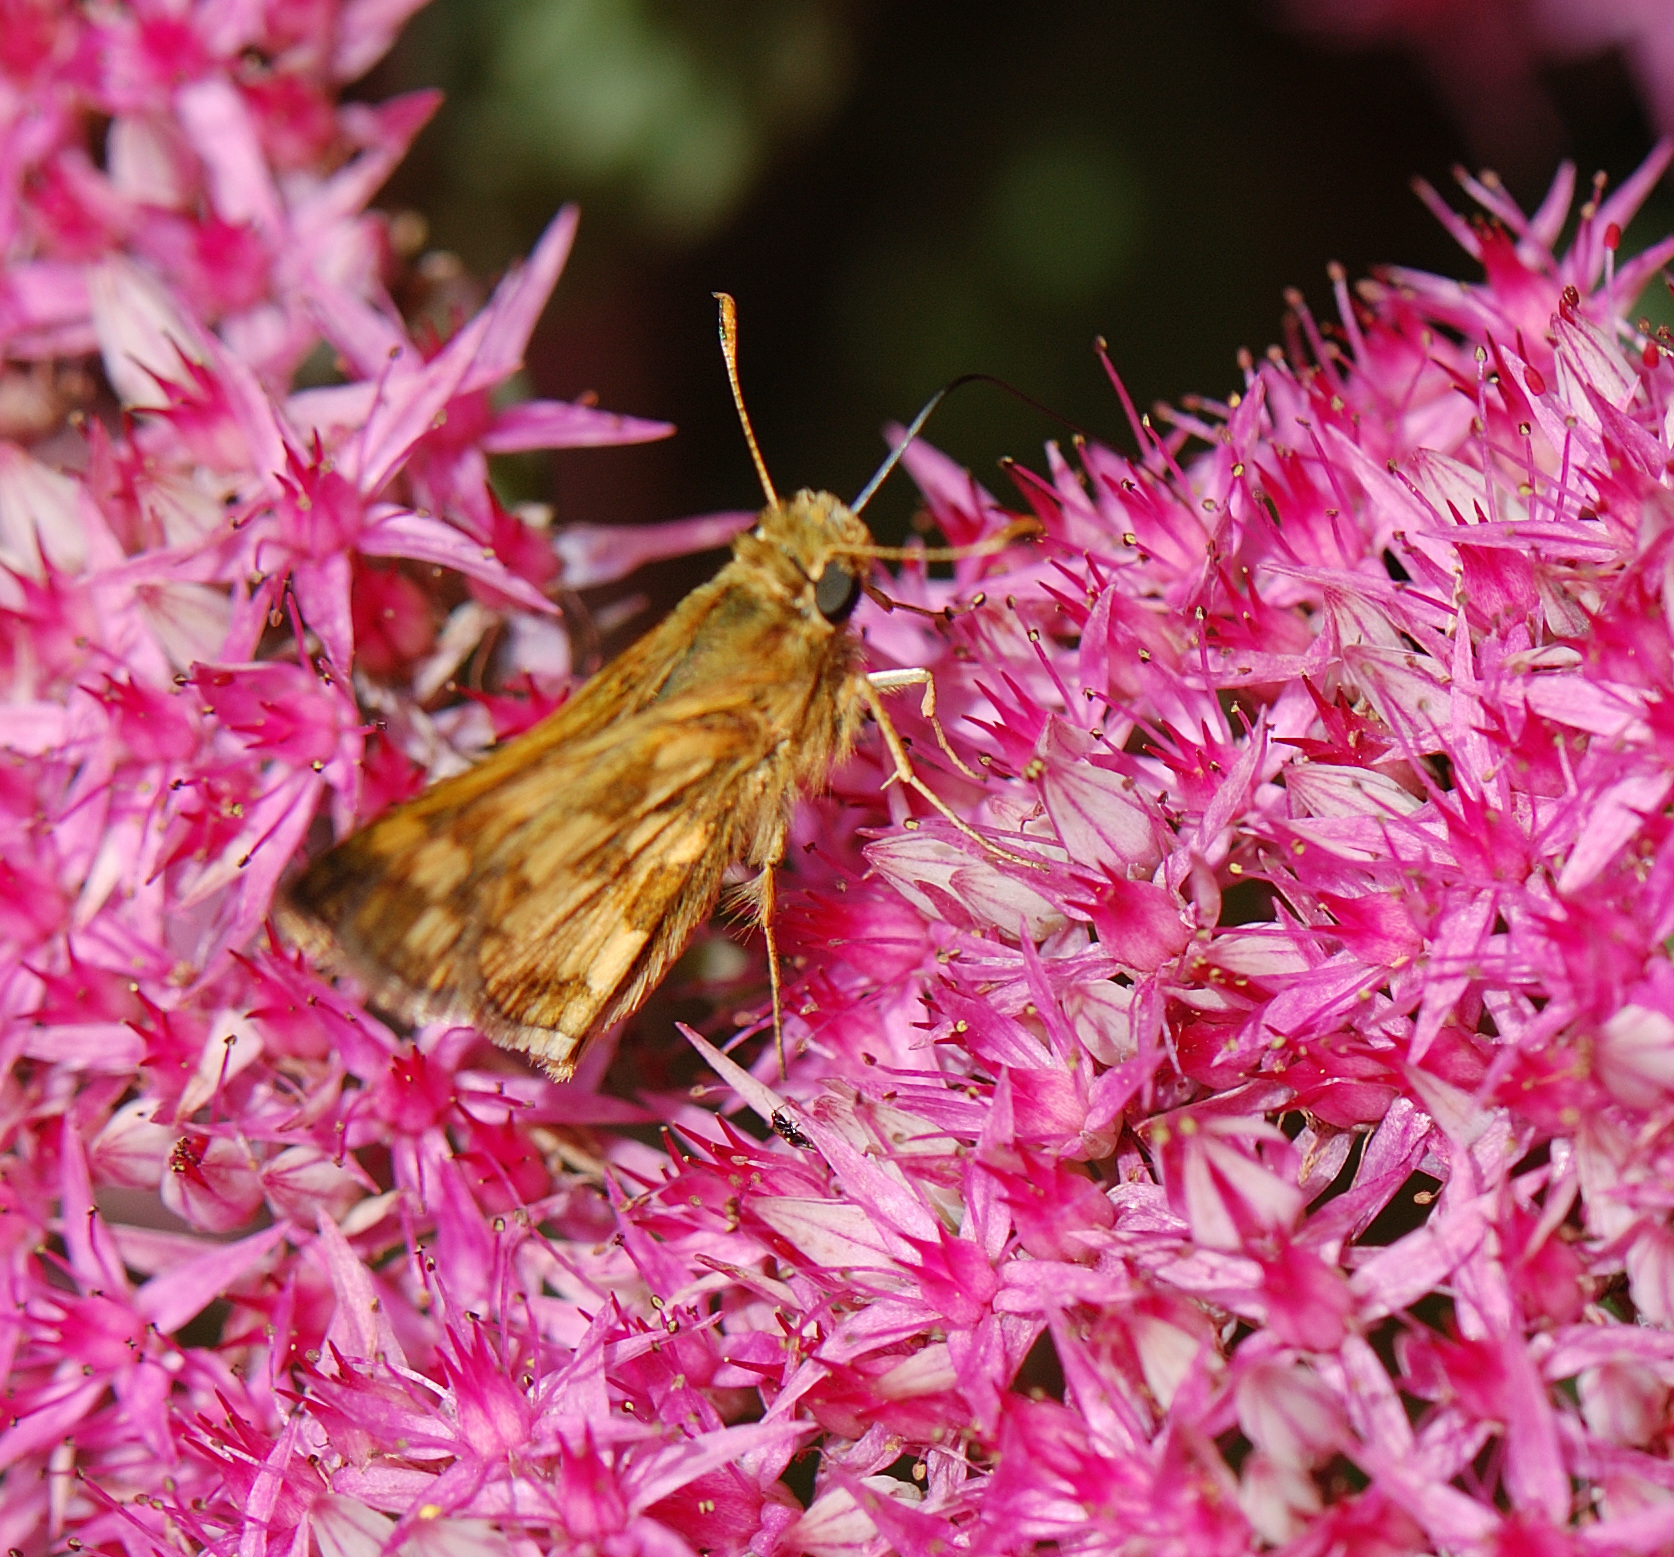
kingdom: Animalia
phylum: Arthropoda
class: Insecta
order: Lepidoptera
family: Hesperiidae
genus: Polites
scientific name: Polites coras
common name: Peck's skipper
